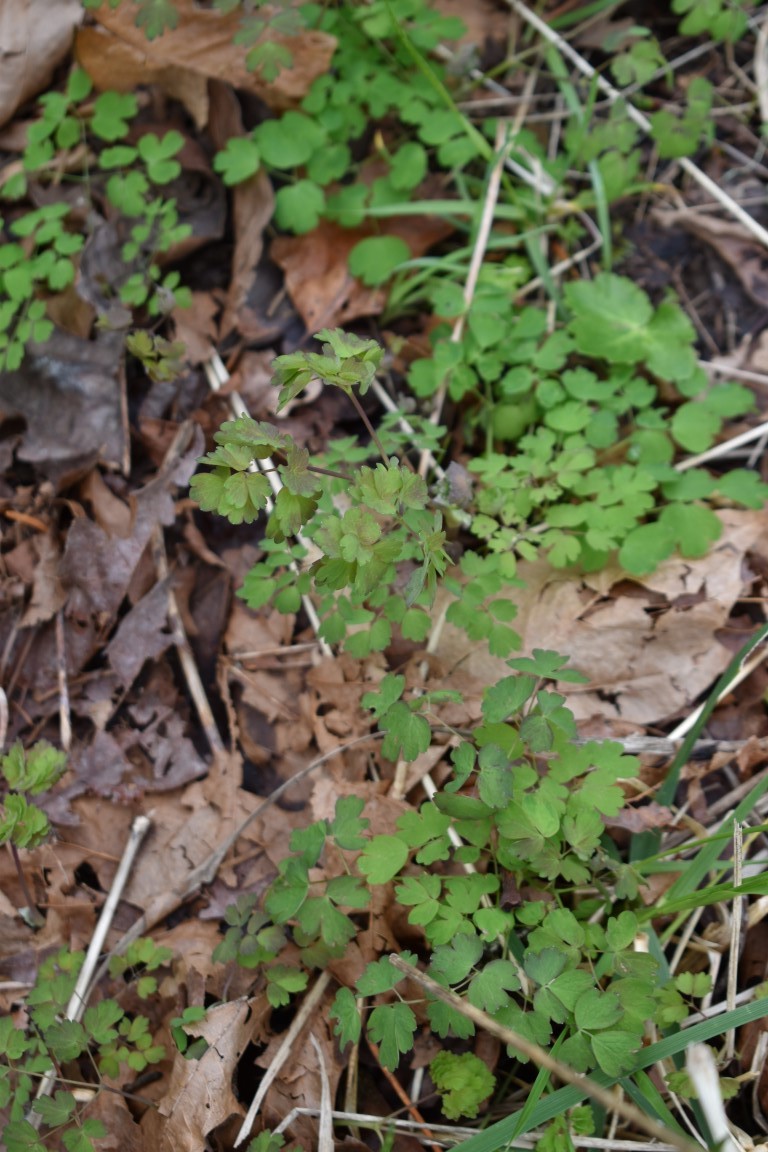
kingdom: Plantae
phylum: Tracheophyta
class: Magnoliopsida
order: Ranunculales
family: Ranunculaceae
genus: Thalictrum
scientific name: Thalictrum occidentale
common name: Western meadow-rue
